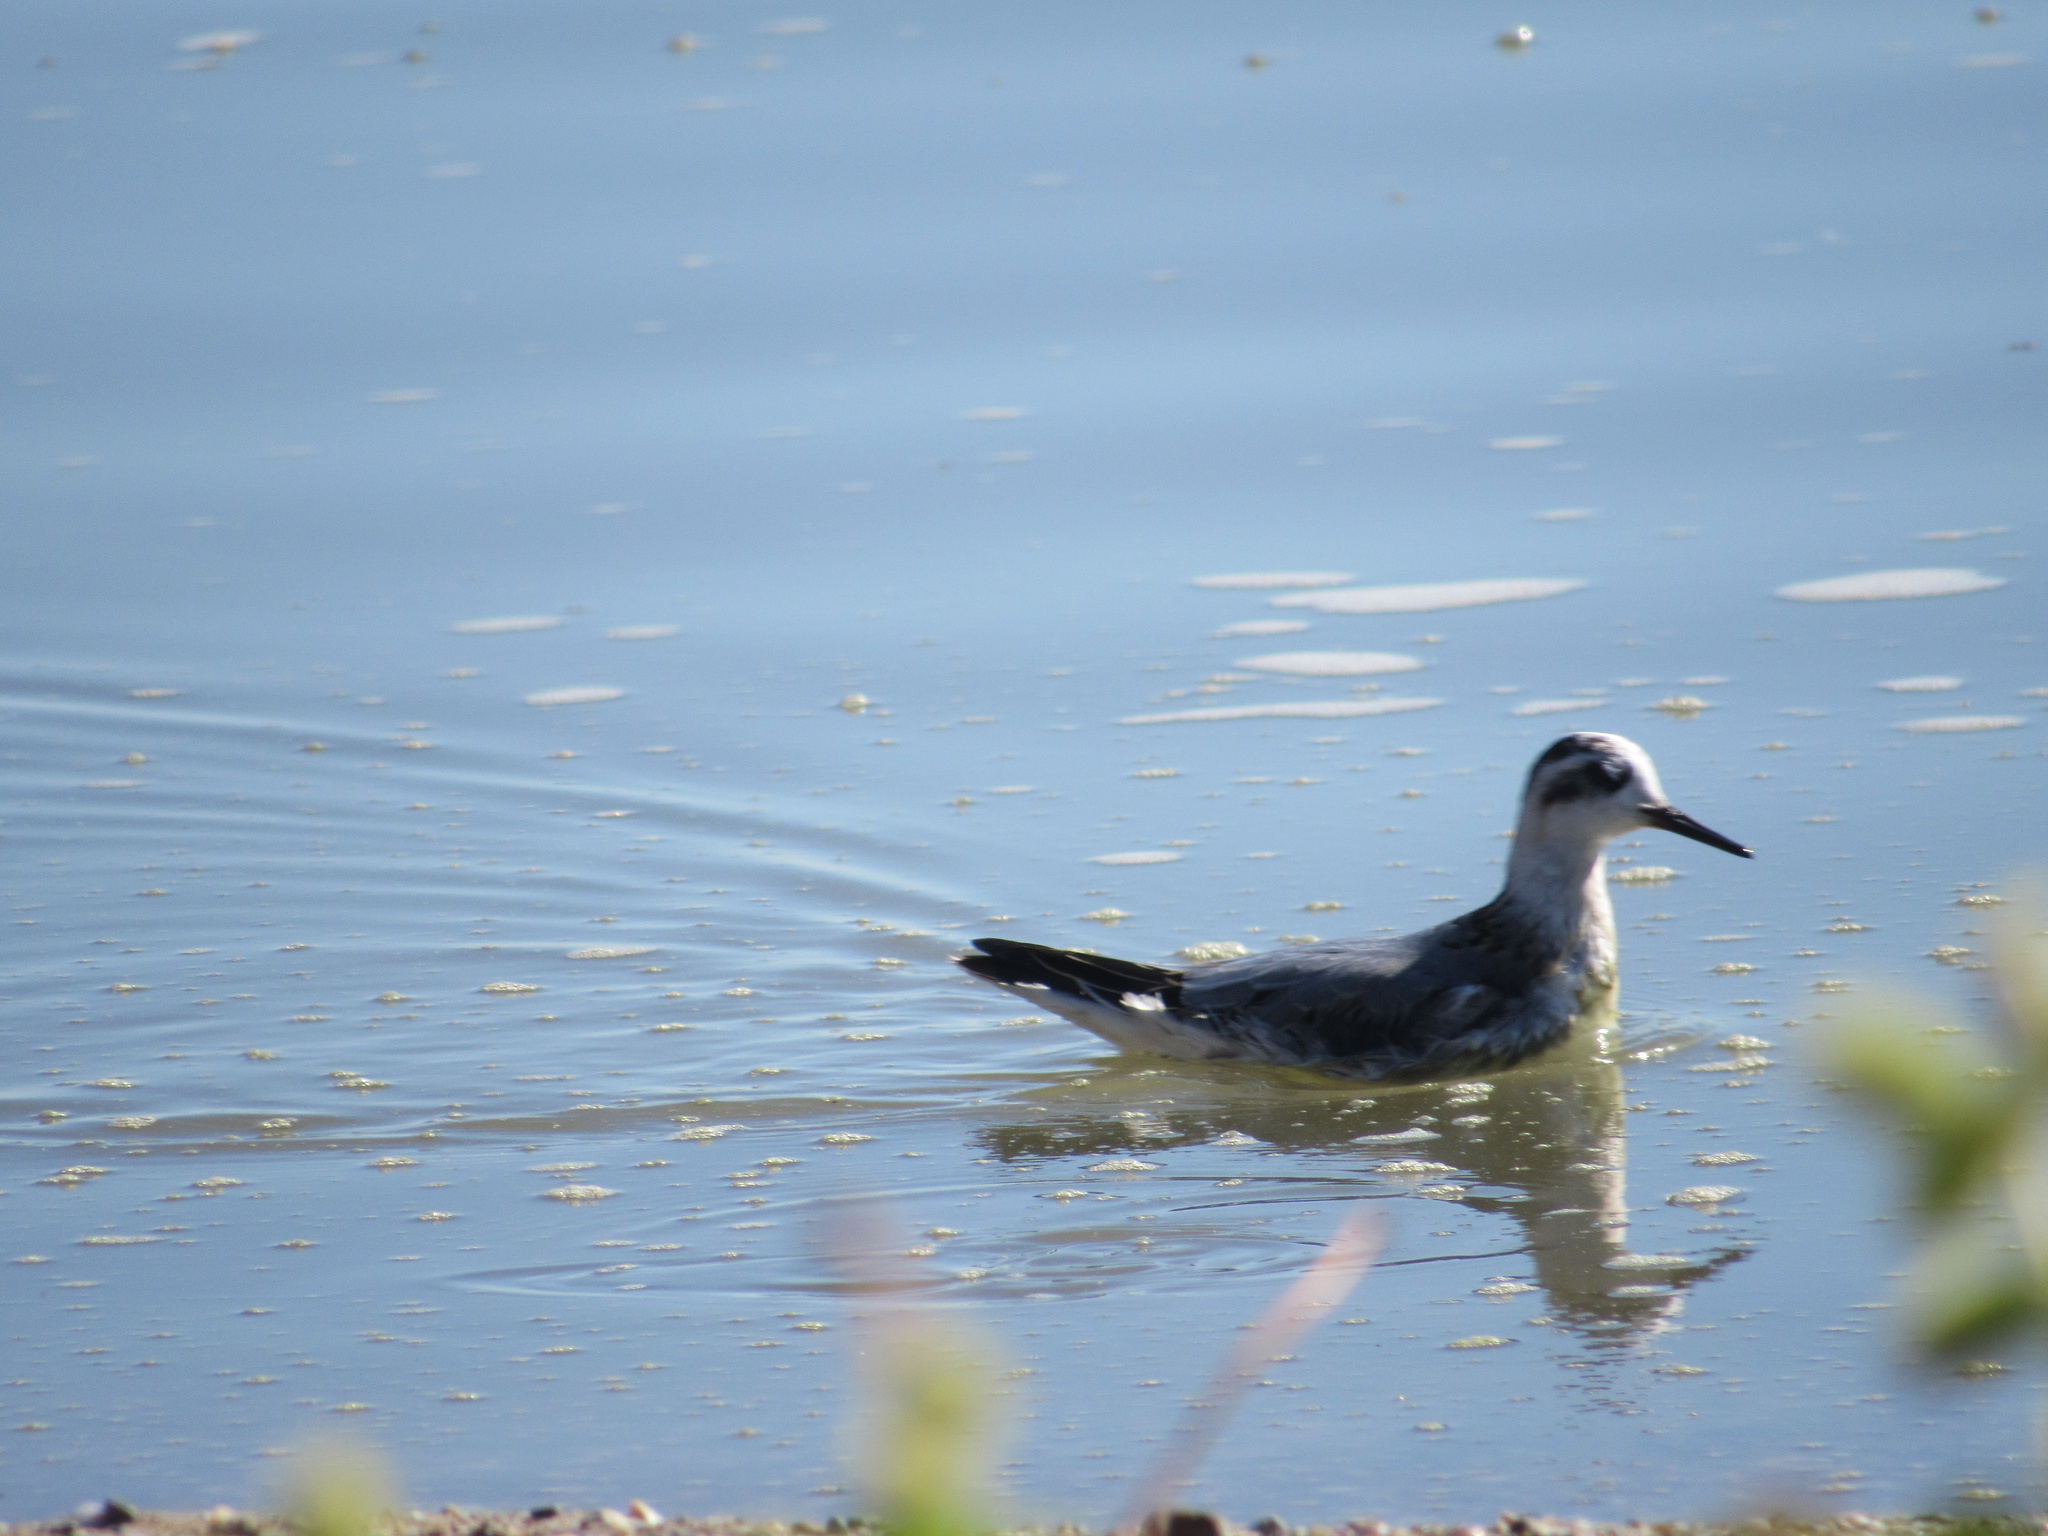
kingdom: Animalia
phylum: Chordata
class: Aves
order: Charadriiformes
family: Scolopacidae
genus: Phalaropus
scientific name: Phalaropus fulicarius
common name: Red phalarope
